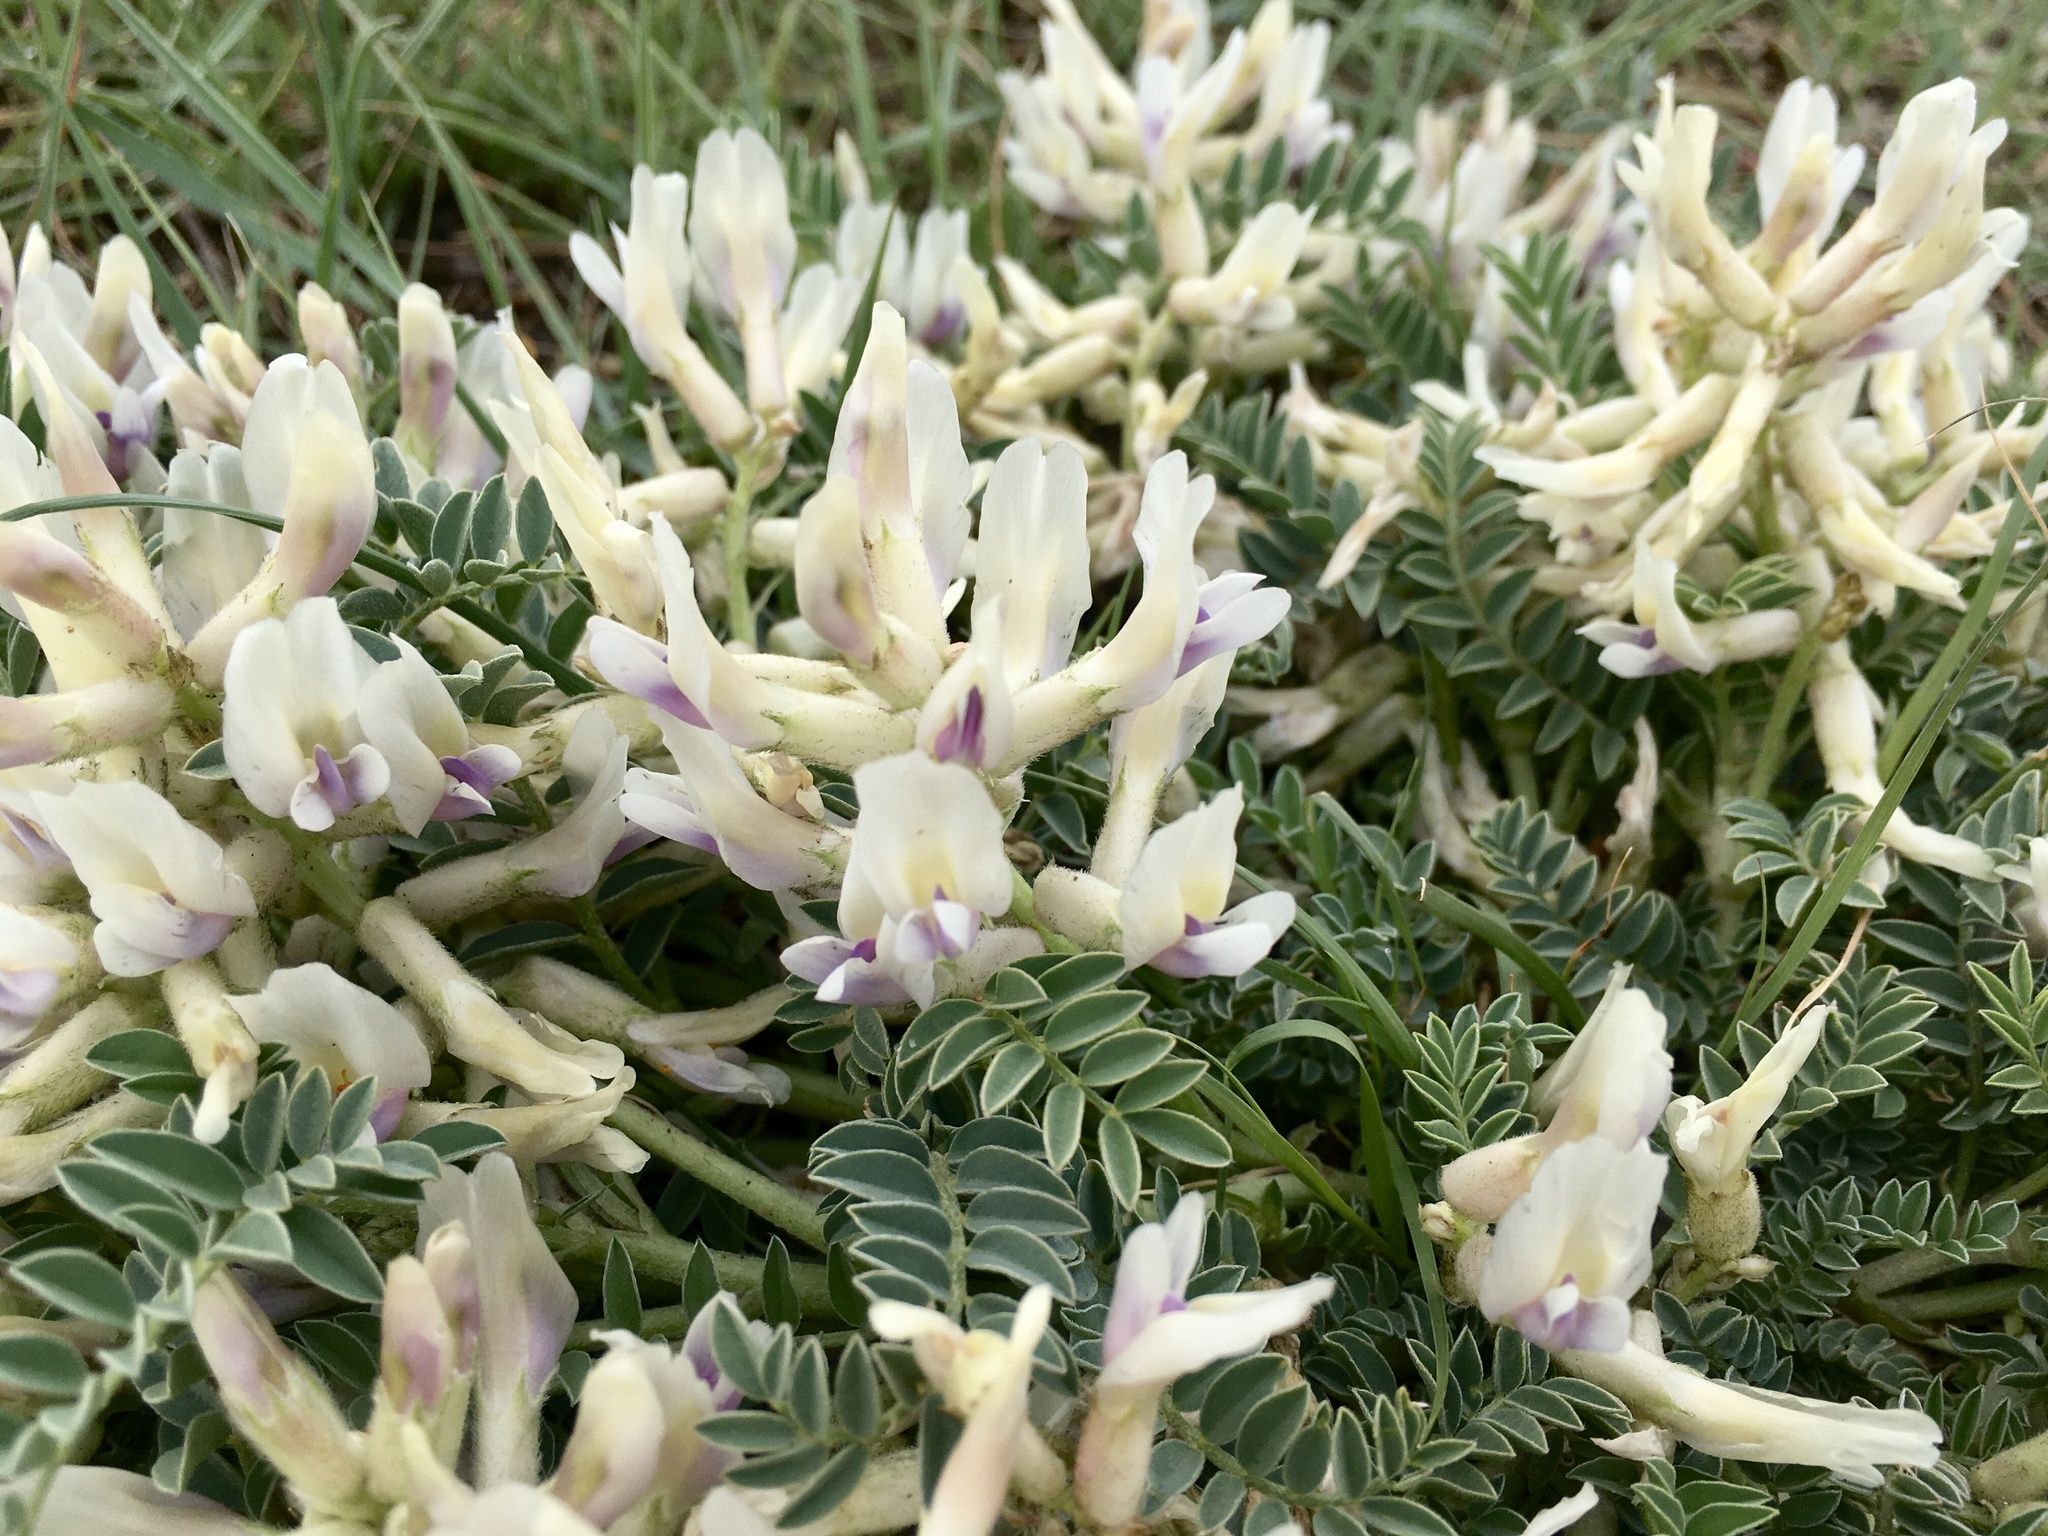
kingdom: Plantae
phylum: Tracheophyta
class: Magnoliopsida
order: Fabales
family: Fabaceae
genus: Astragalus
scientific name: Astragalus crassicarpus
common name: Ground-plum milk-vetch
